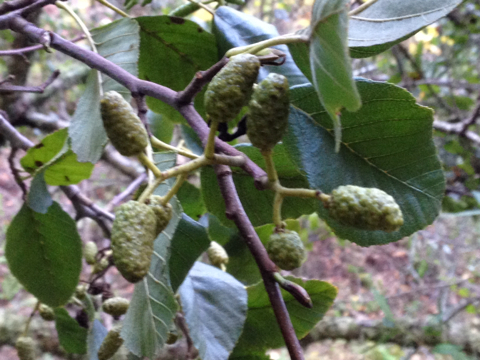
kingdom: Plantae
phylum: Tracheophyta
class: Magnoliopsida
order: Fagales
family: Betulaceae
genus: Alnus
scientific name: Alnus rhombifolia
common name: California alder
